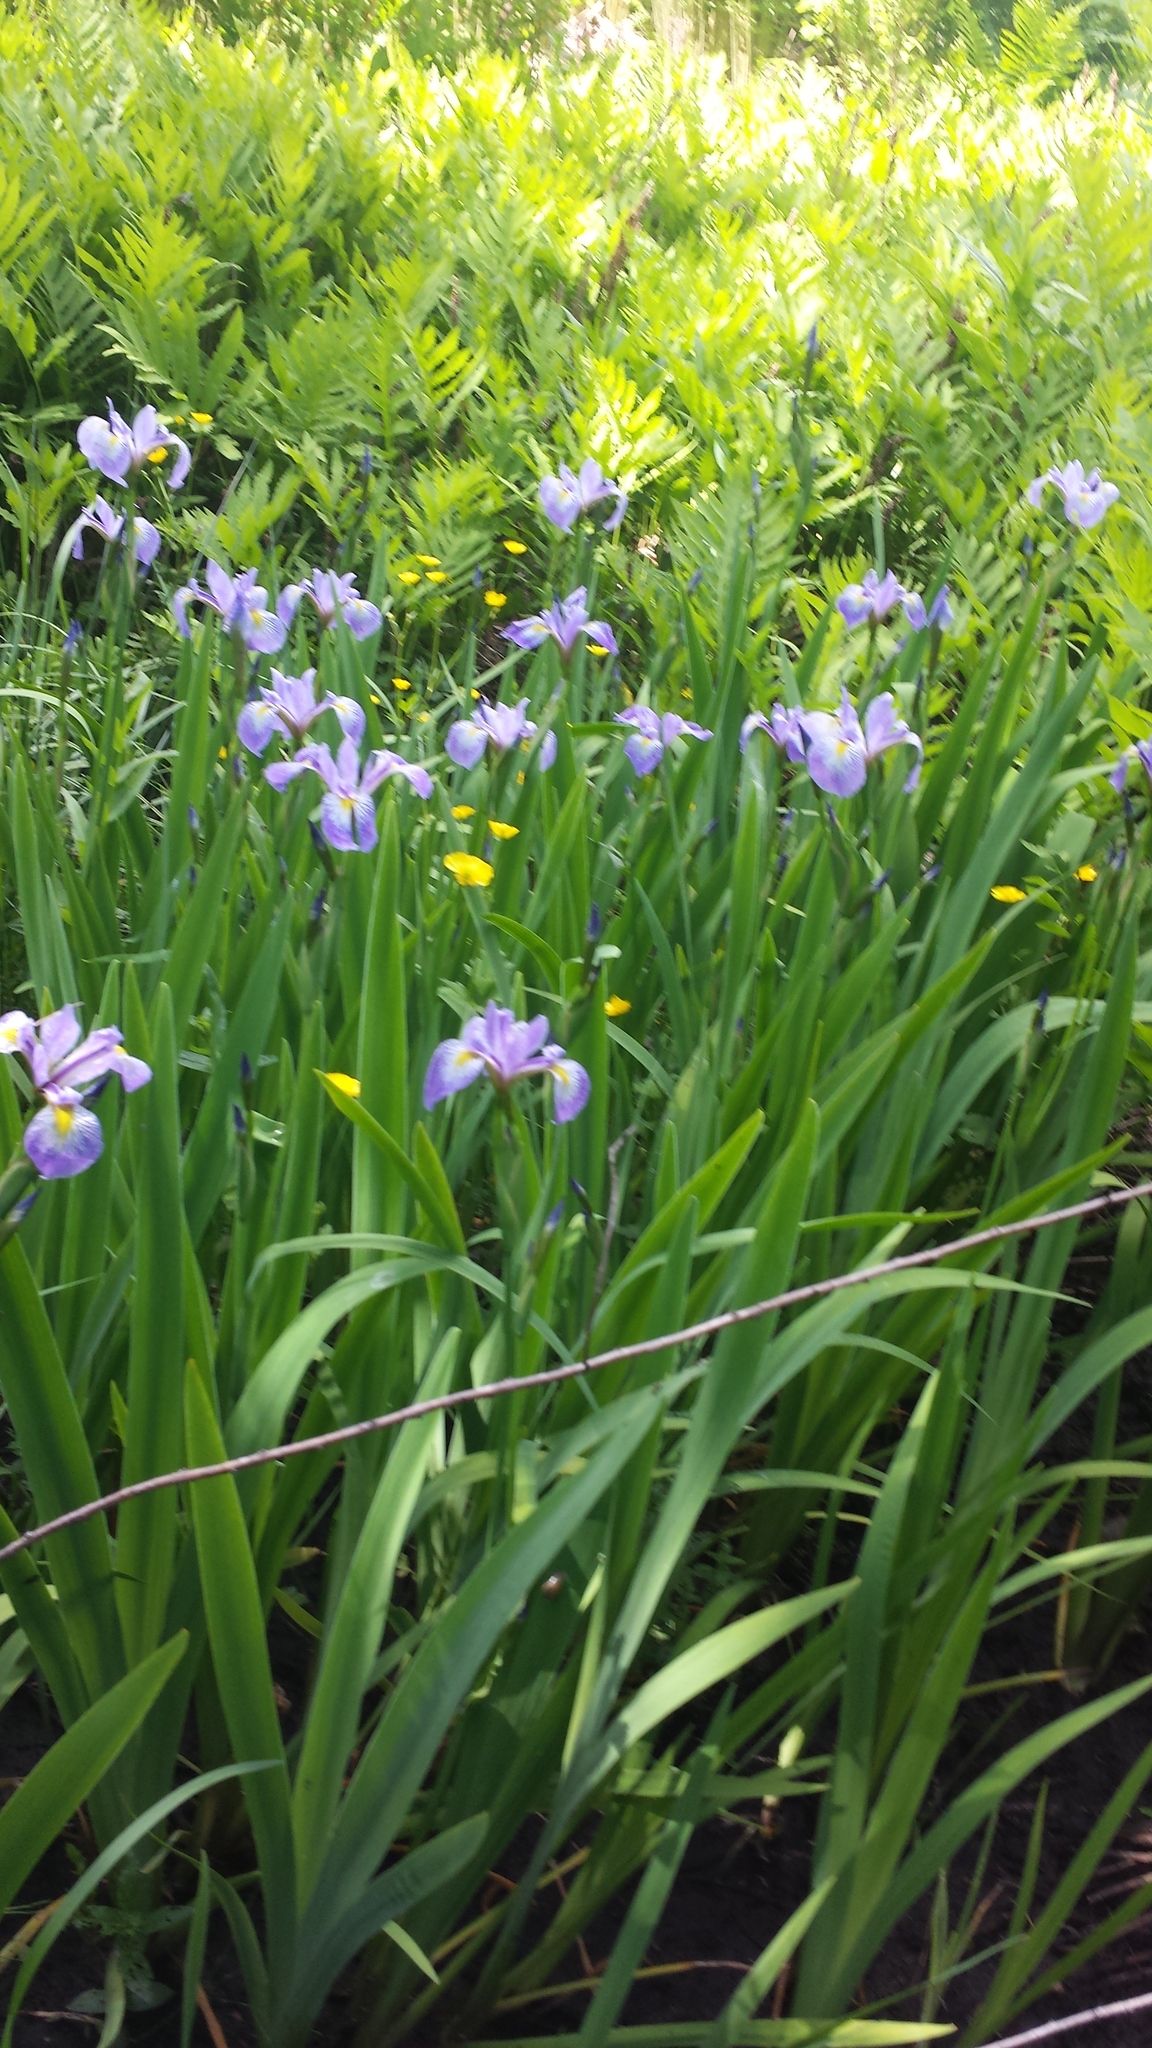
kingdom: Plantae
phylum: Tracheophyta
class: Liliopsida
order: Asparagales
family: Iridaceae
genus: Iris
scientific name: Iris versicolor
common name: Purple iris
